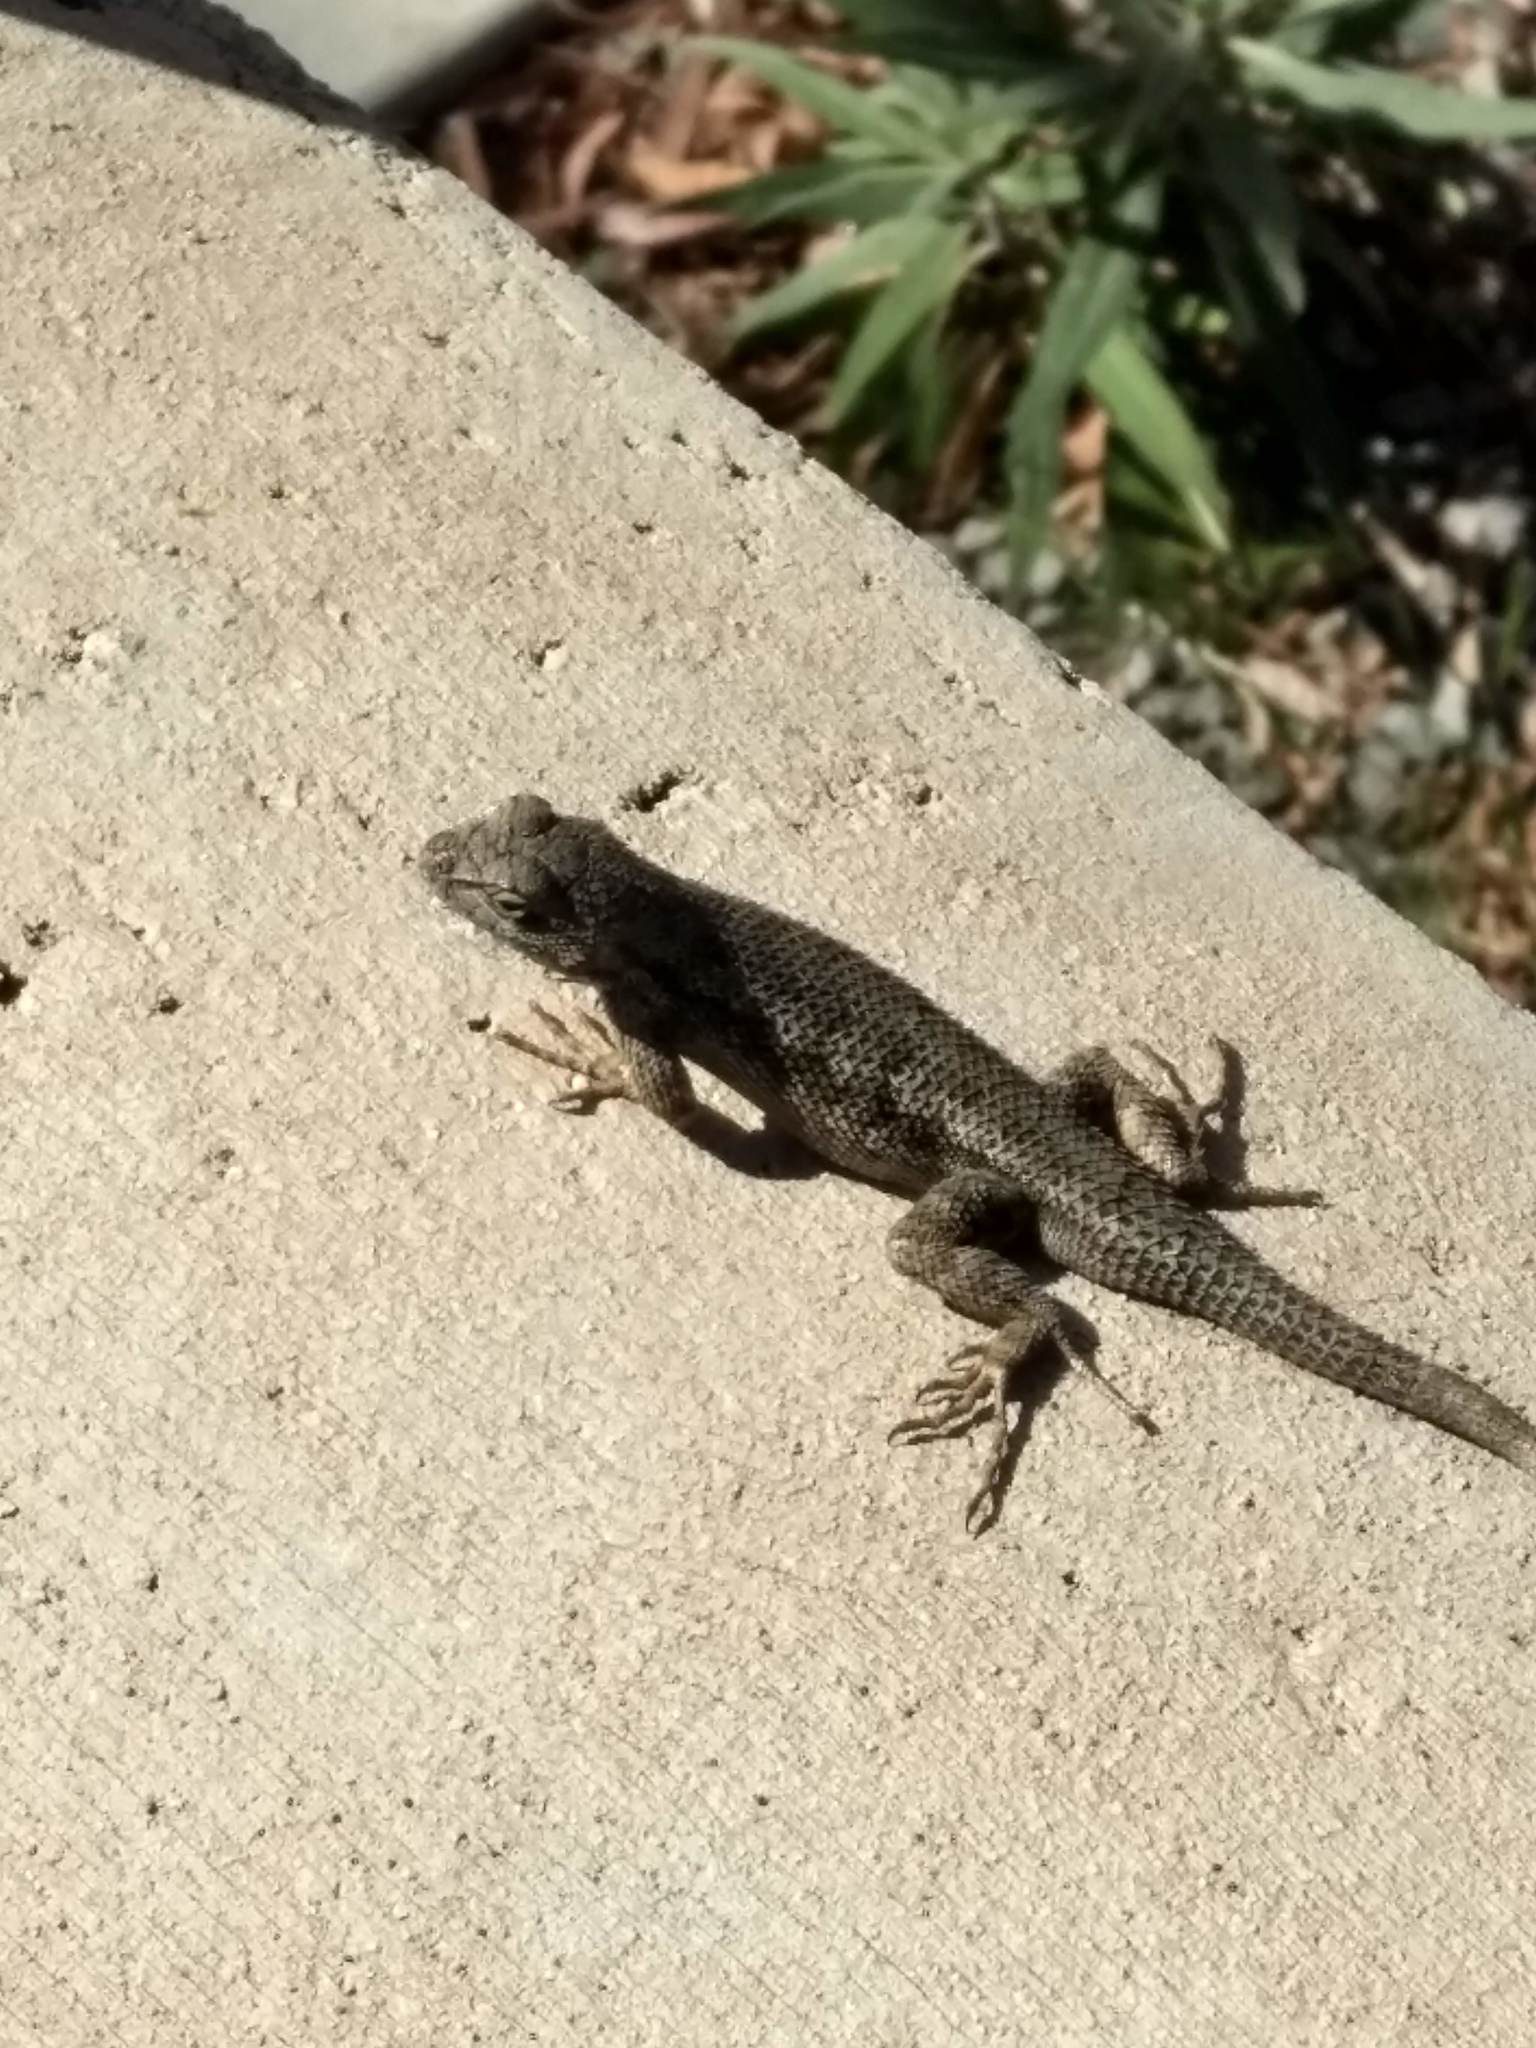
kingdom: Animalia
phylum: Chordata
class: Squamata
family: Phrynosomatidae
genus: Sceloporus
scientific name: Sceloporus occidentalis
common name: Western fence lizard
